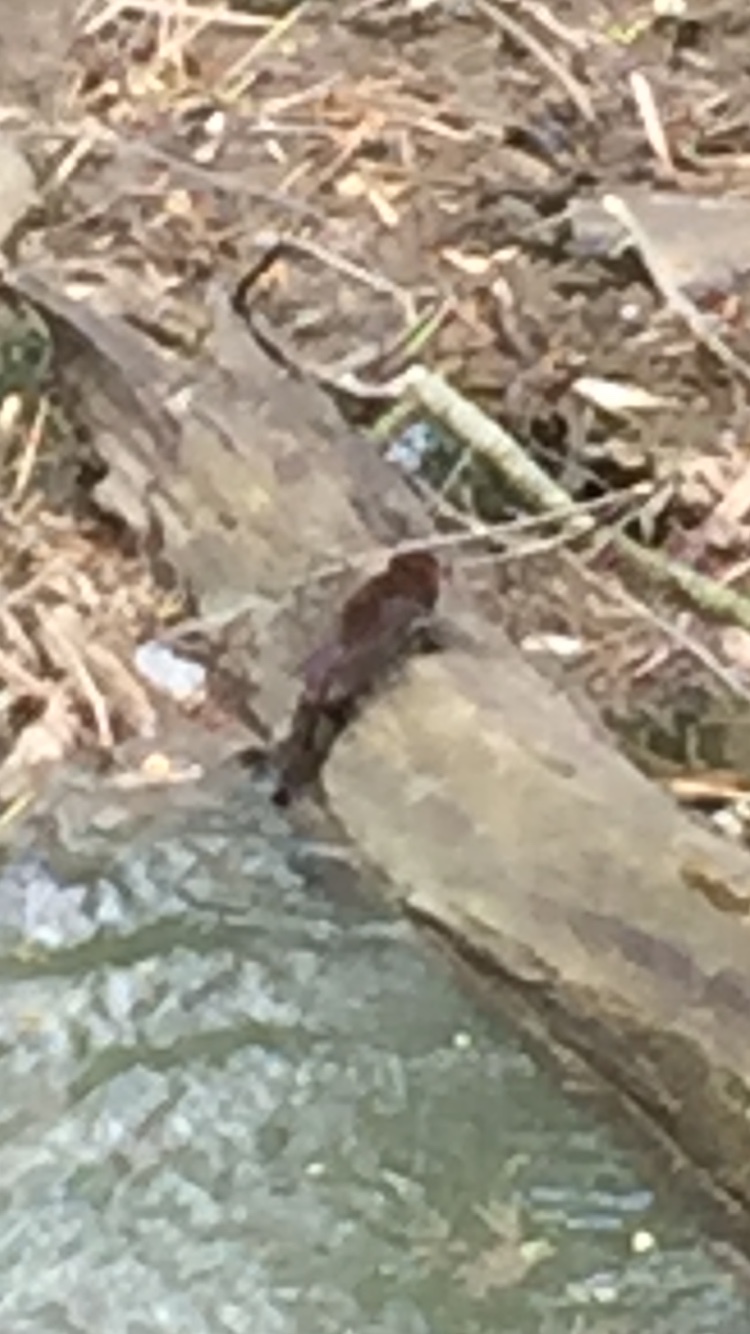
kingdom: Animalia
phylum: Chordata
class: Mammalia
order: Carnivora
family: Mustelidae
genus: Mustela
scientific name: Mustela
